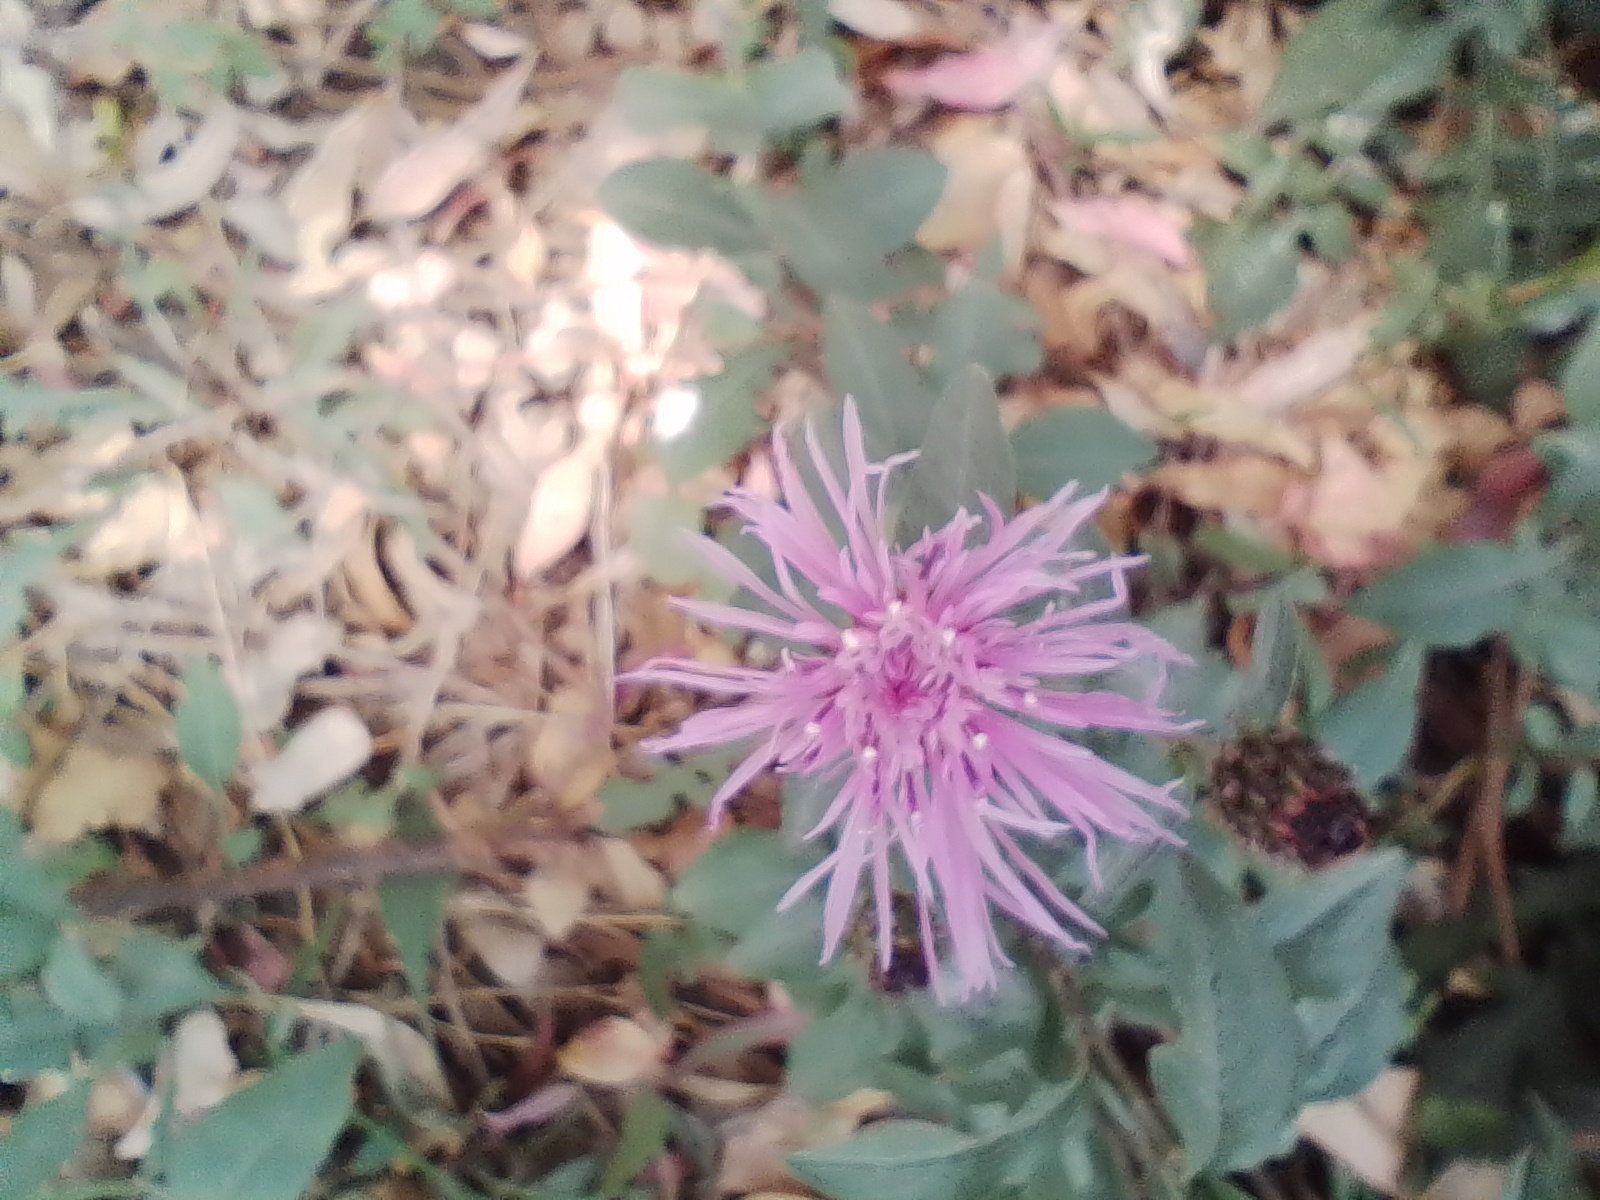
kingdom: Plantae
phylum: Tracheophyta
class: Magnoliopsida
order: Asterales
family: Asteraceae
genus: Centaurea
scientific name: Centaurea jacea
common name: Brown knapweed
